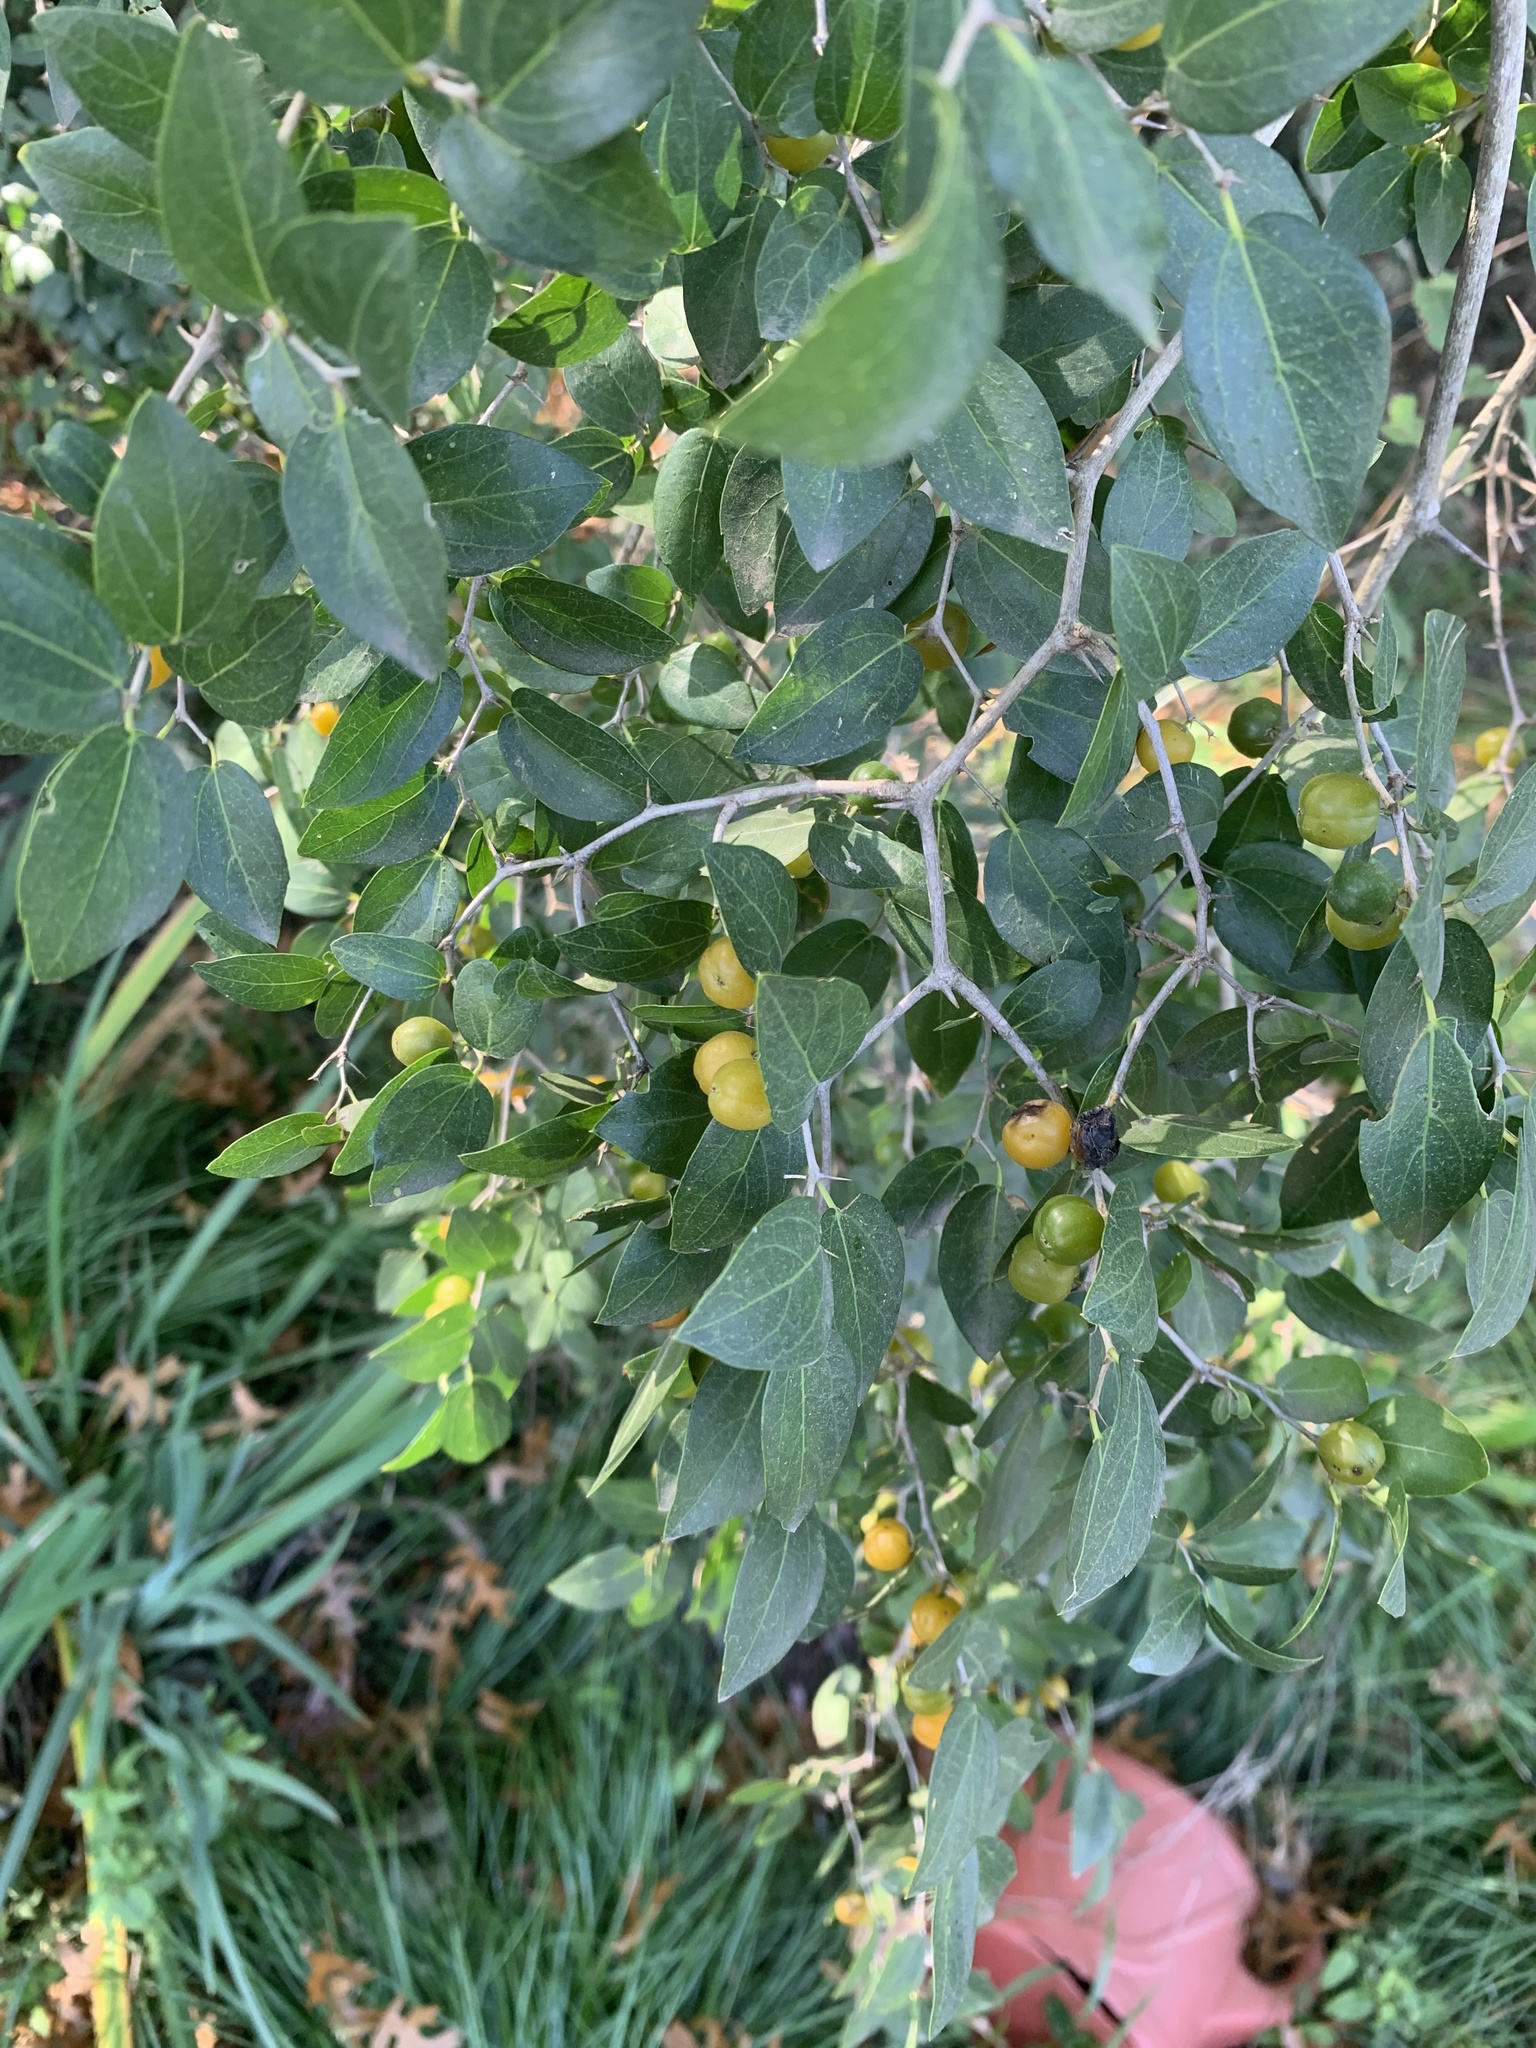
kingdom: Plantae
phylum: Tracheophyta
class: Magnoliopsida
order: Rosales
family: Cannabaceae
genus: Celtis
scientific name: Celtis tala
